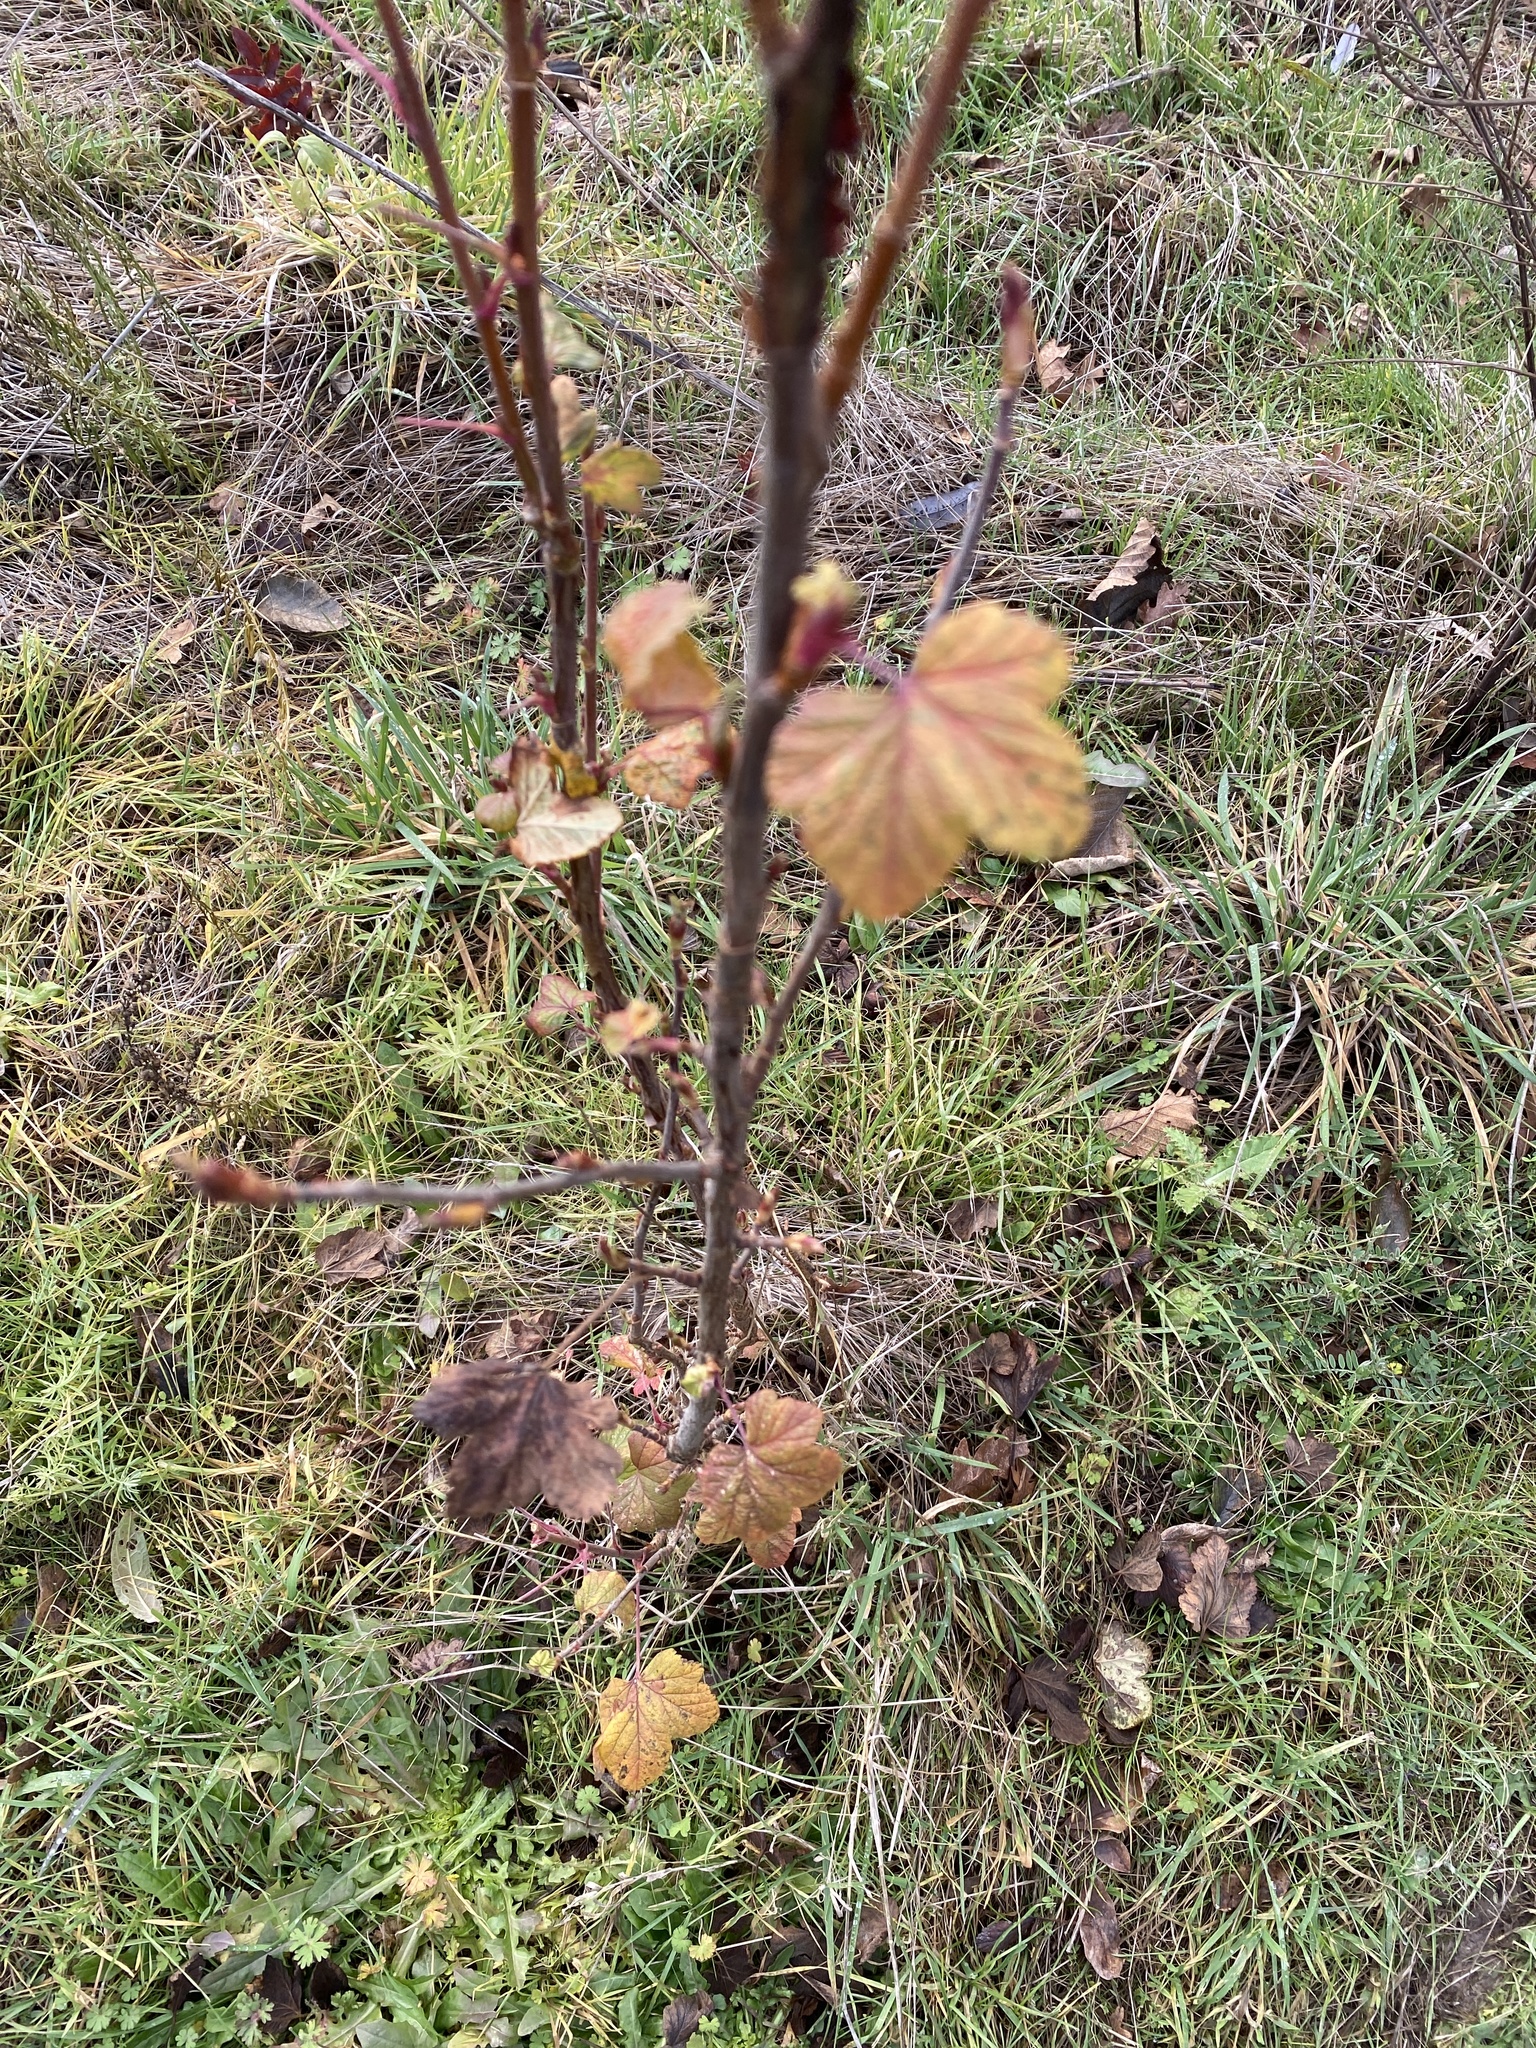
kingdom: Plantae
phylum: Tracheophyta
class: Magnoliopsida
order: Saxifragales
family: Grossulariaceae
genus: Ribes
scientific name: Ribes sanguineum
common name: Flowering currant
